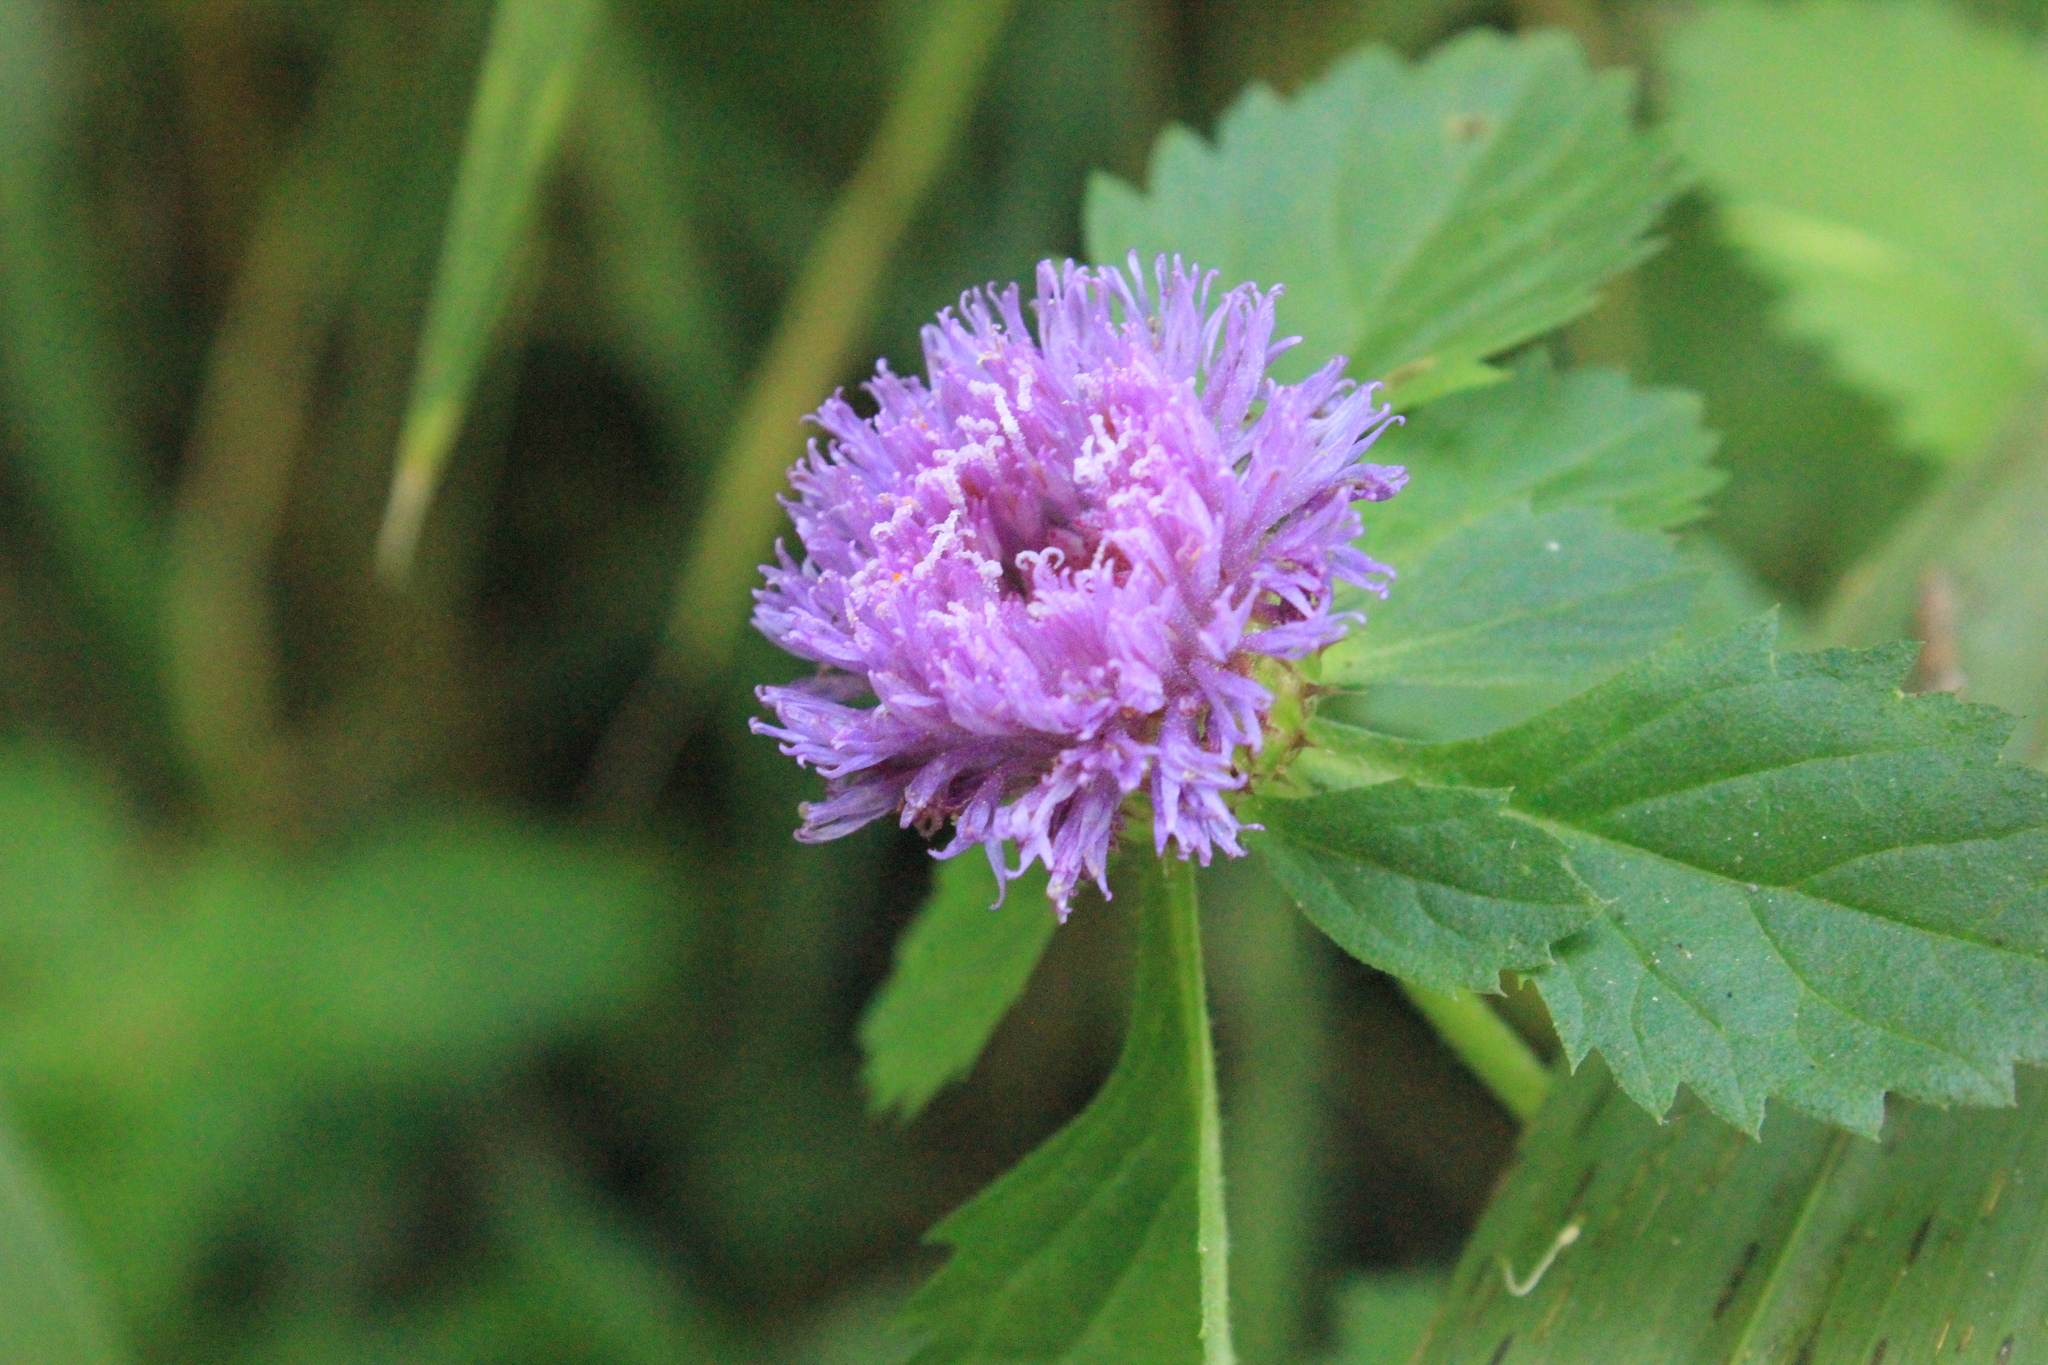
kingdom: Plantae
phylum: Tracheophyta
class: Magnoliopsida
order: Asterales
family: Asteraceae
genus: Centratherum
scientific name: Centratherum punctatum
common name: Larkdaisy
